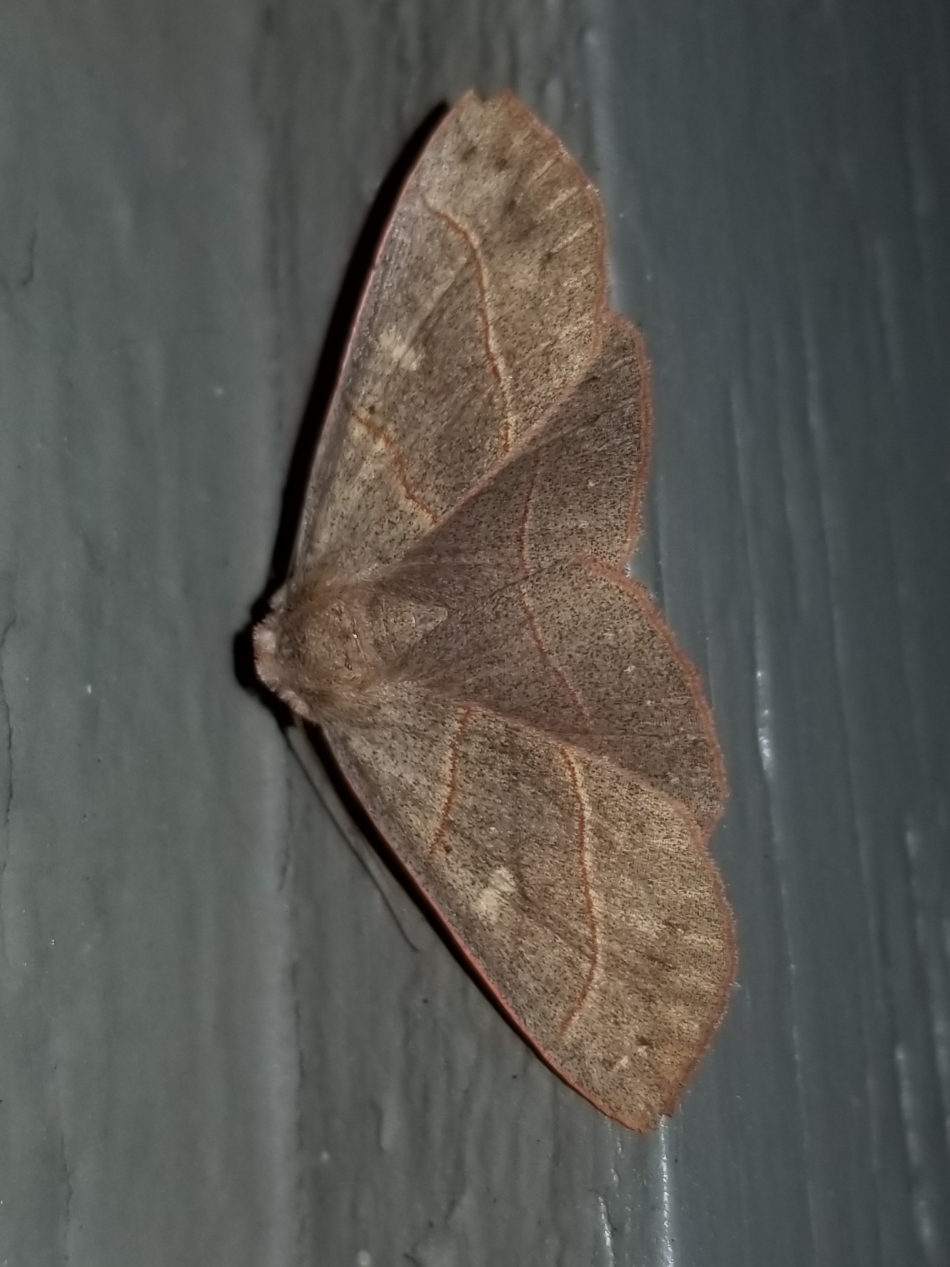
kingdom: Animalia
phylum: Arthropoda
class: Insecta
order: Lepidoptera
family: Erebidae
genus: Panopoda
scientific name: Panopoda rufimargo
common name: Red-lined panopoda moth
